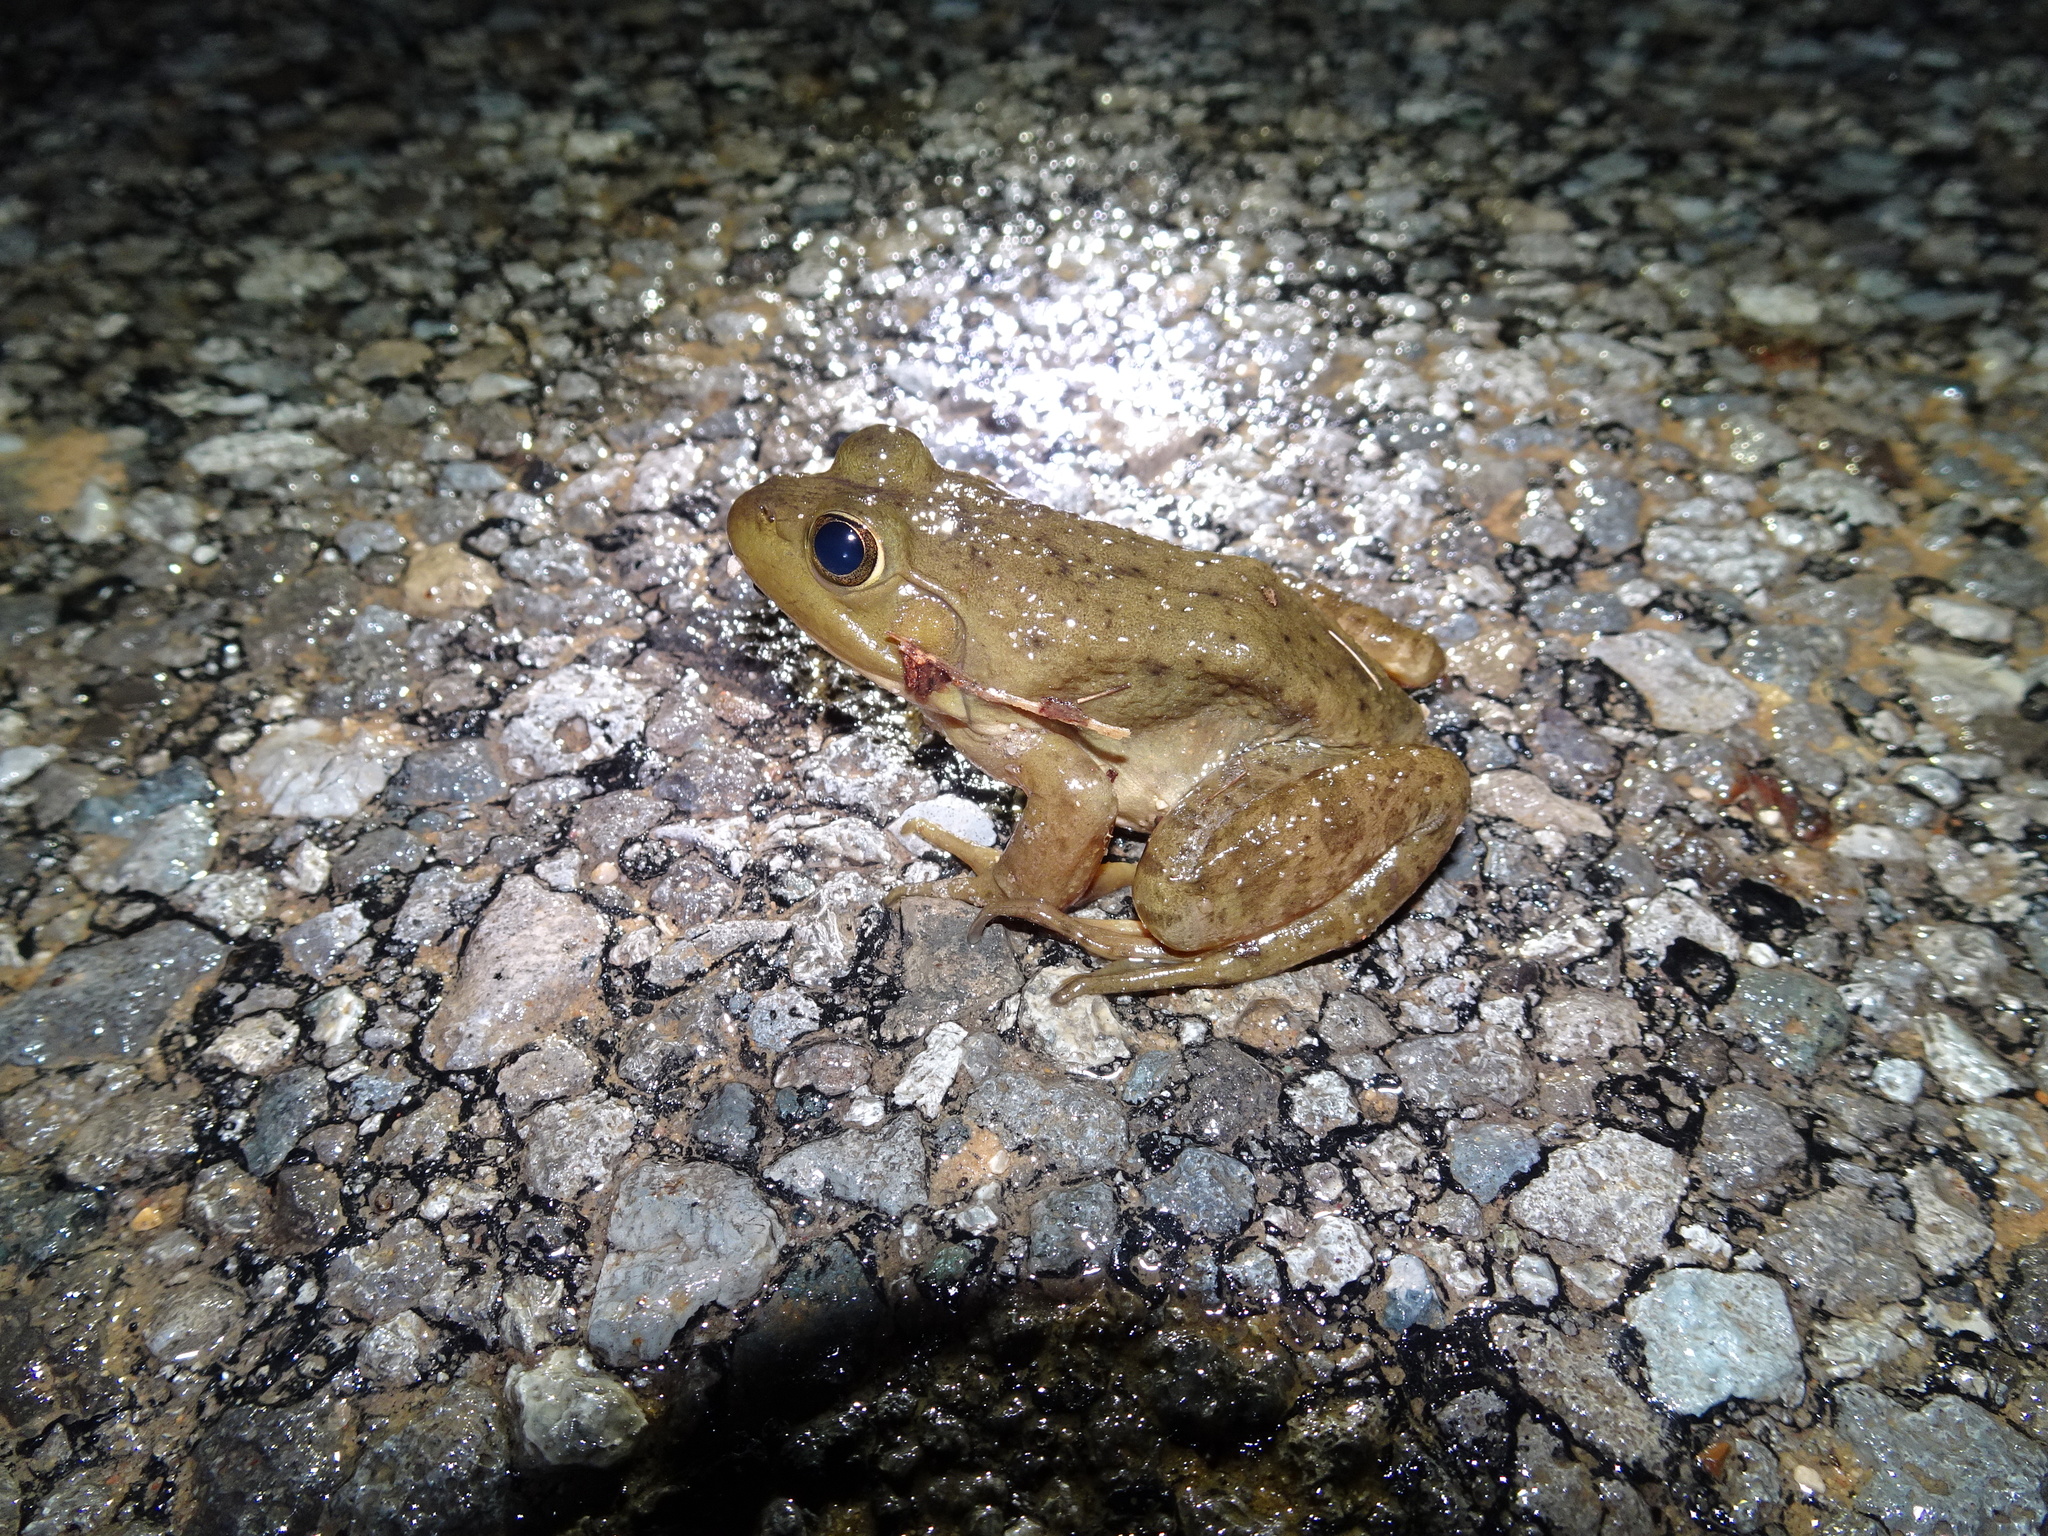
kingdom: Animalia
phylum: Chordata
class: Amphibia
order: Anura
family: Ranidae
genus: Lithobates
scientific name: Lithobates catesbeianus
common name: American bullfrog
